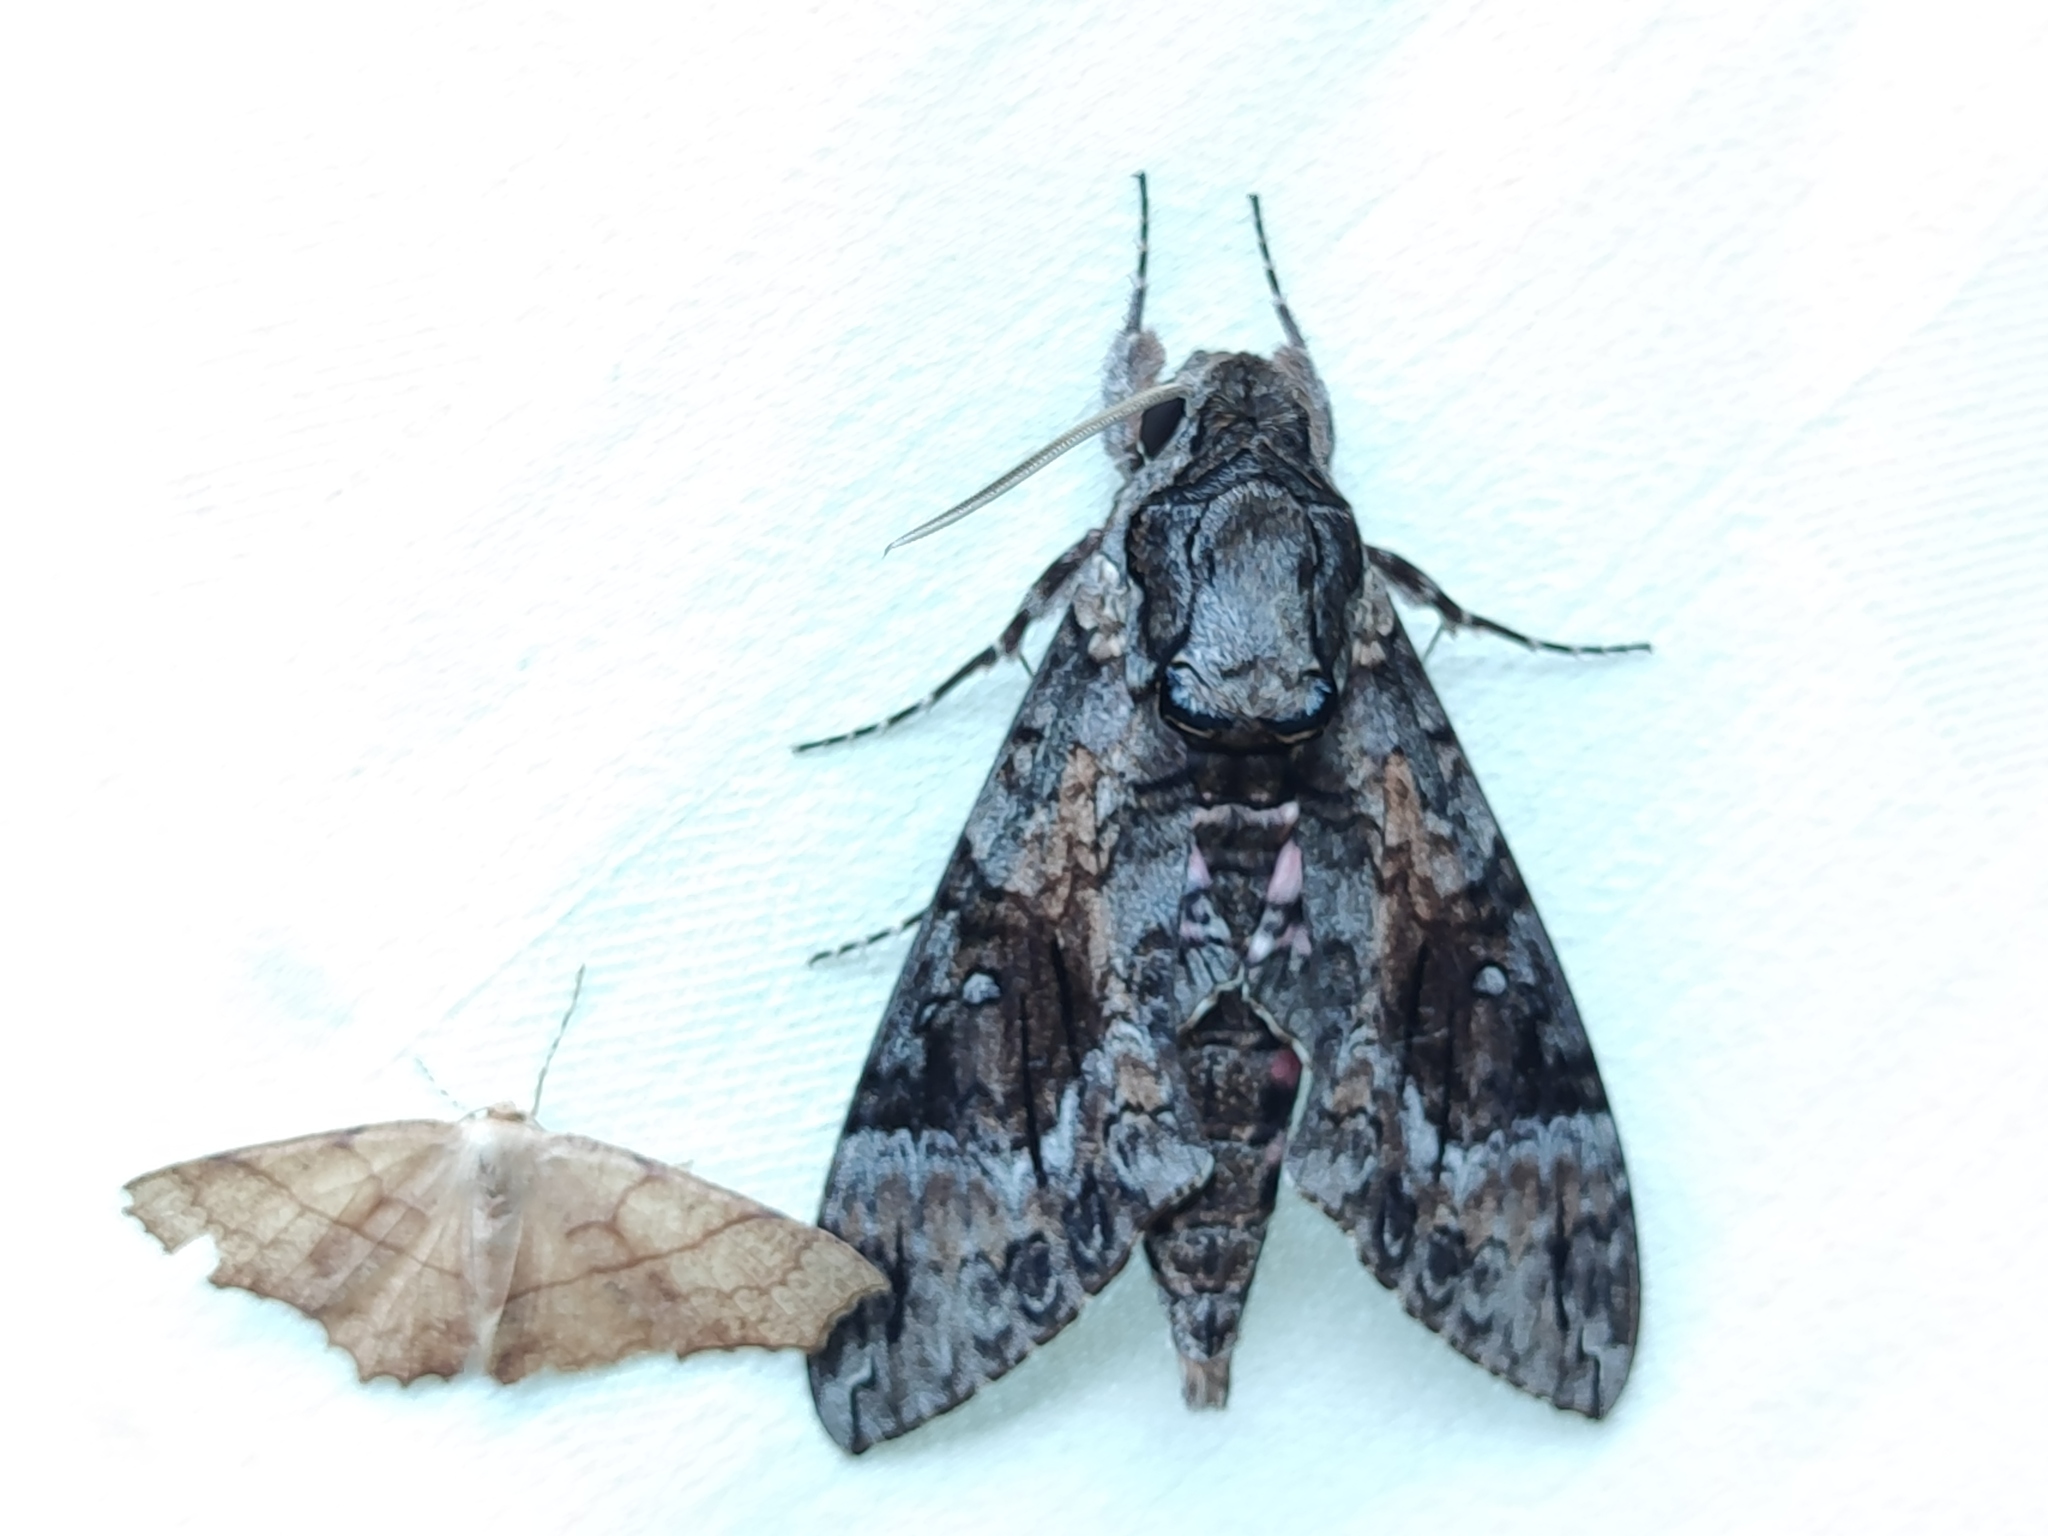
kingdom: Animalia
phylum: Arthropoda
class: Insecta
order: Lepidoptera
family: Sphingidae
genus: Agrius
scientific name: Agrius cingulata
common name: Pink-spotted hawkmoth
